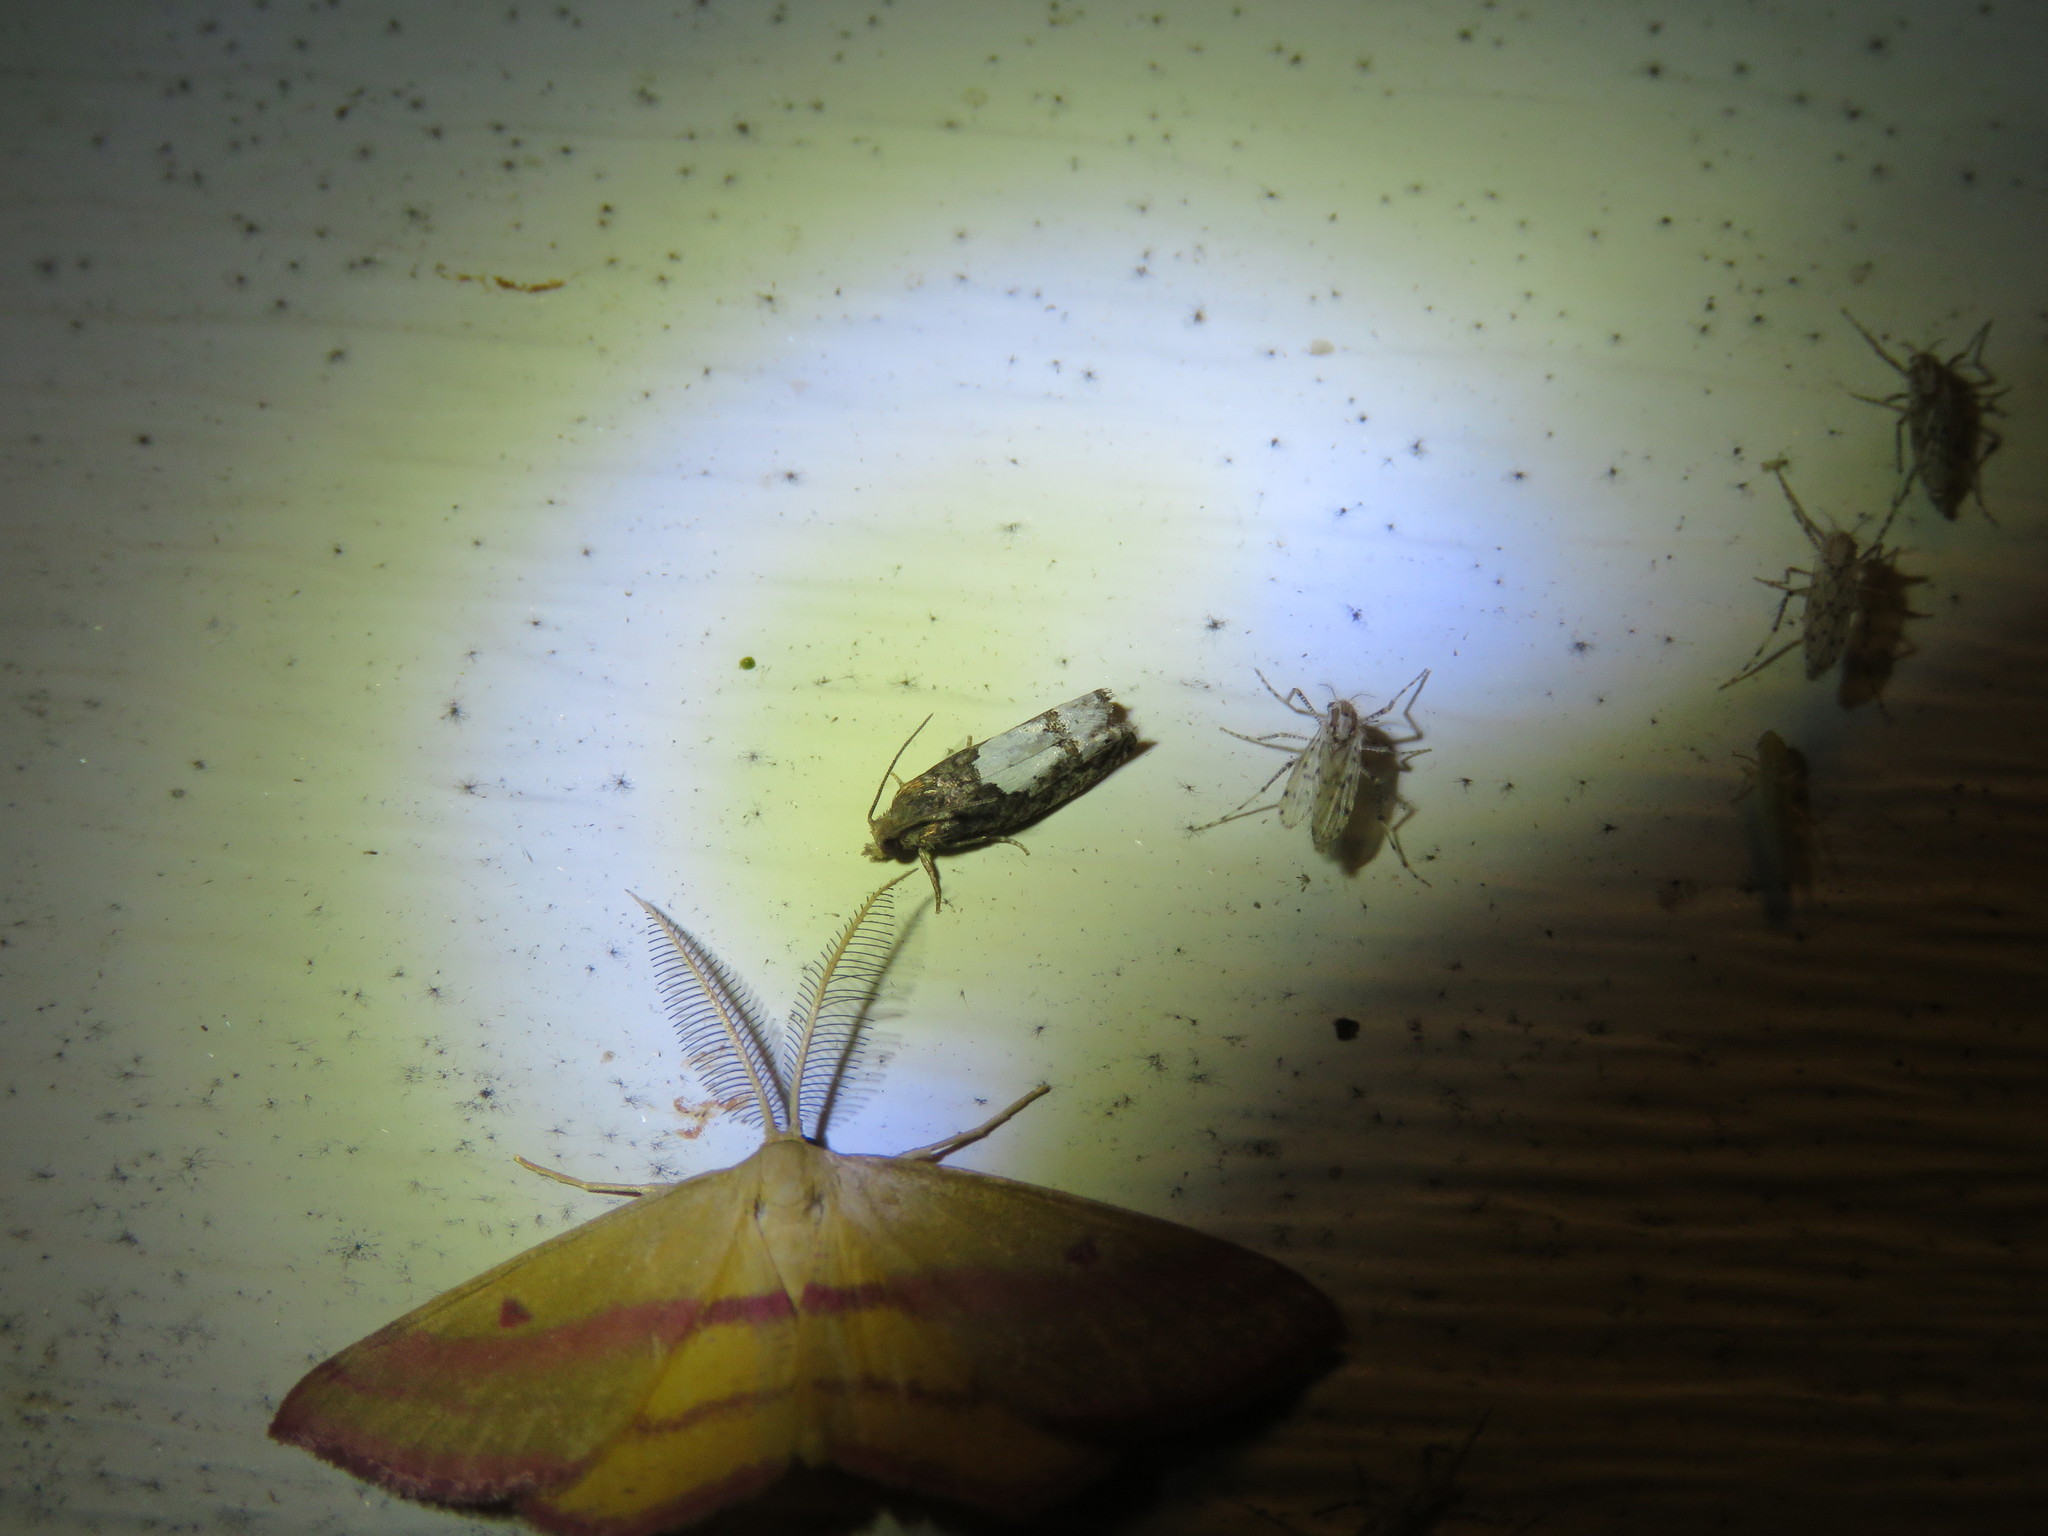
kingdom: Animalia
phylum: Arthropoda
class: Insecta
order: Lepidoptera
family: Tortricidae
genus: Eucosma
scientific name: Eucosma parmatana
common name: Aster eucosma moth
